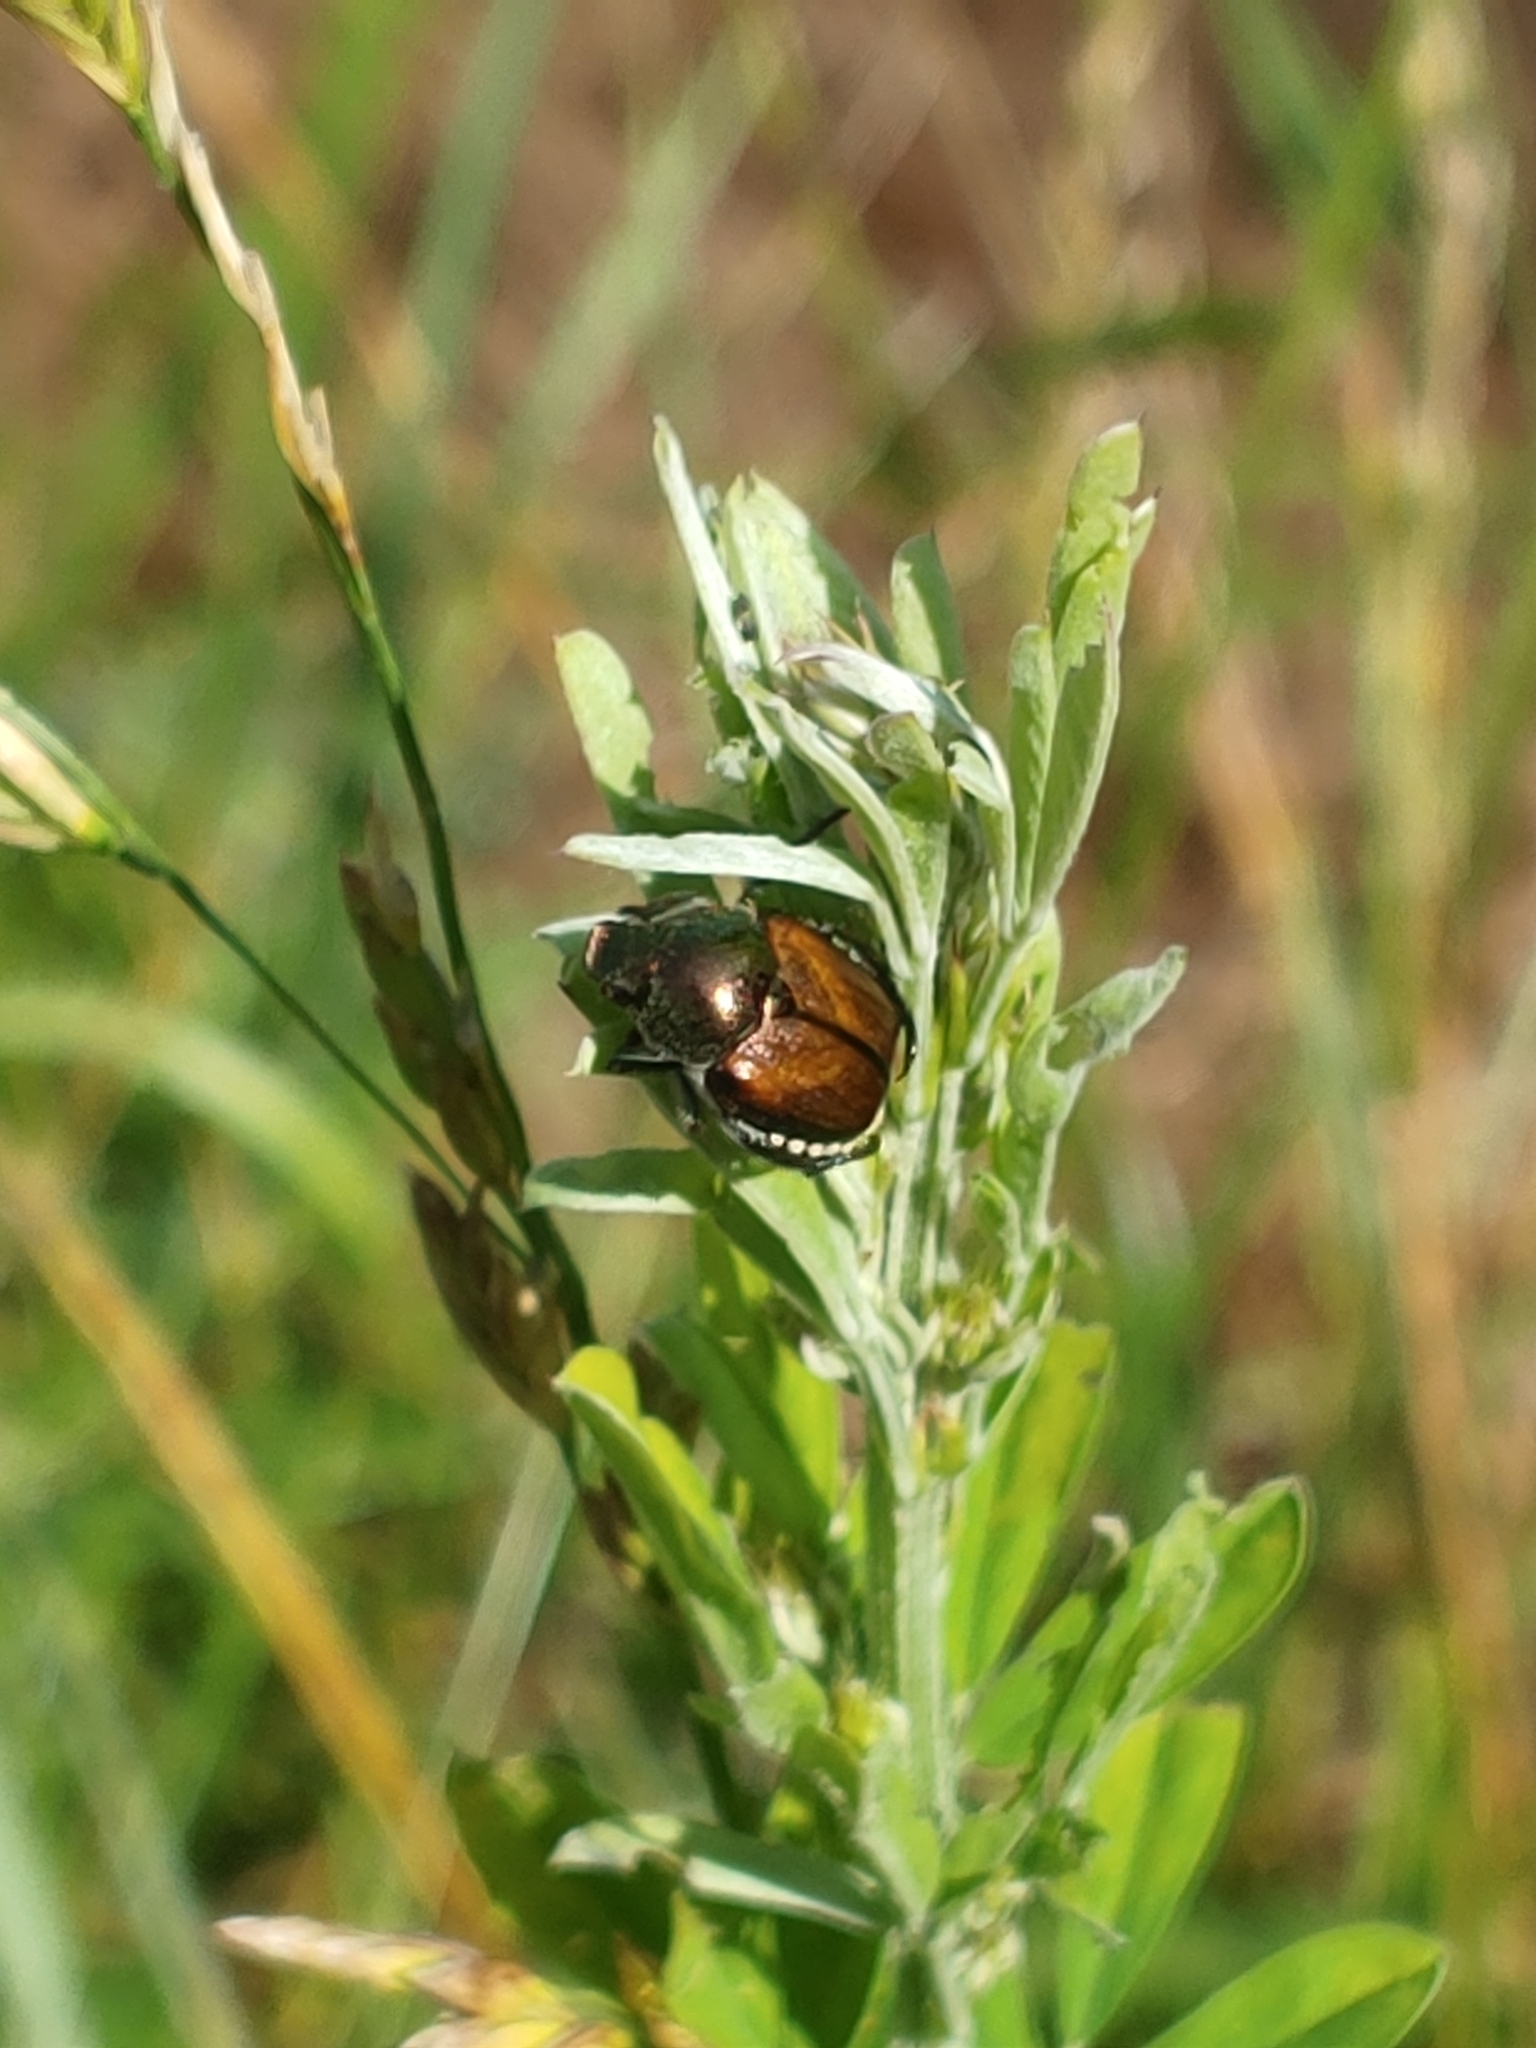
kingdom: Animalia
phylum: Arthropoda
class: Insecta
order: Coleoptera
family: Scarabaeidae
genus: Popillia
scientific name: Popillia japonica
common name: Japanese beetle
